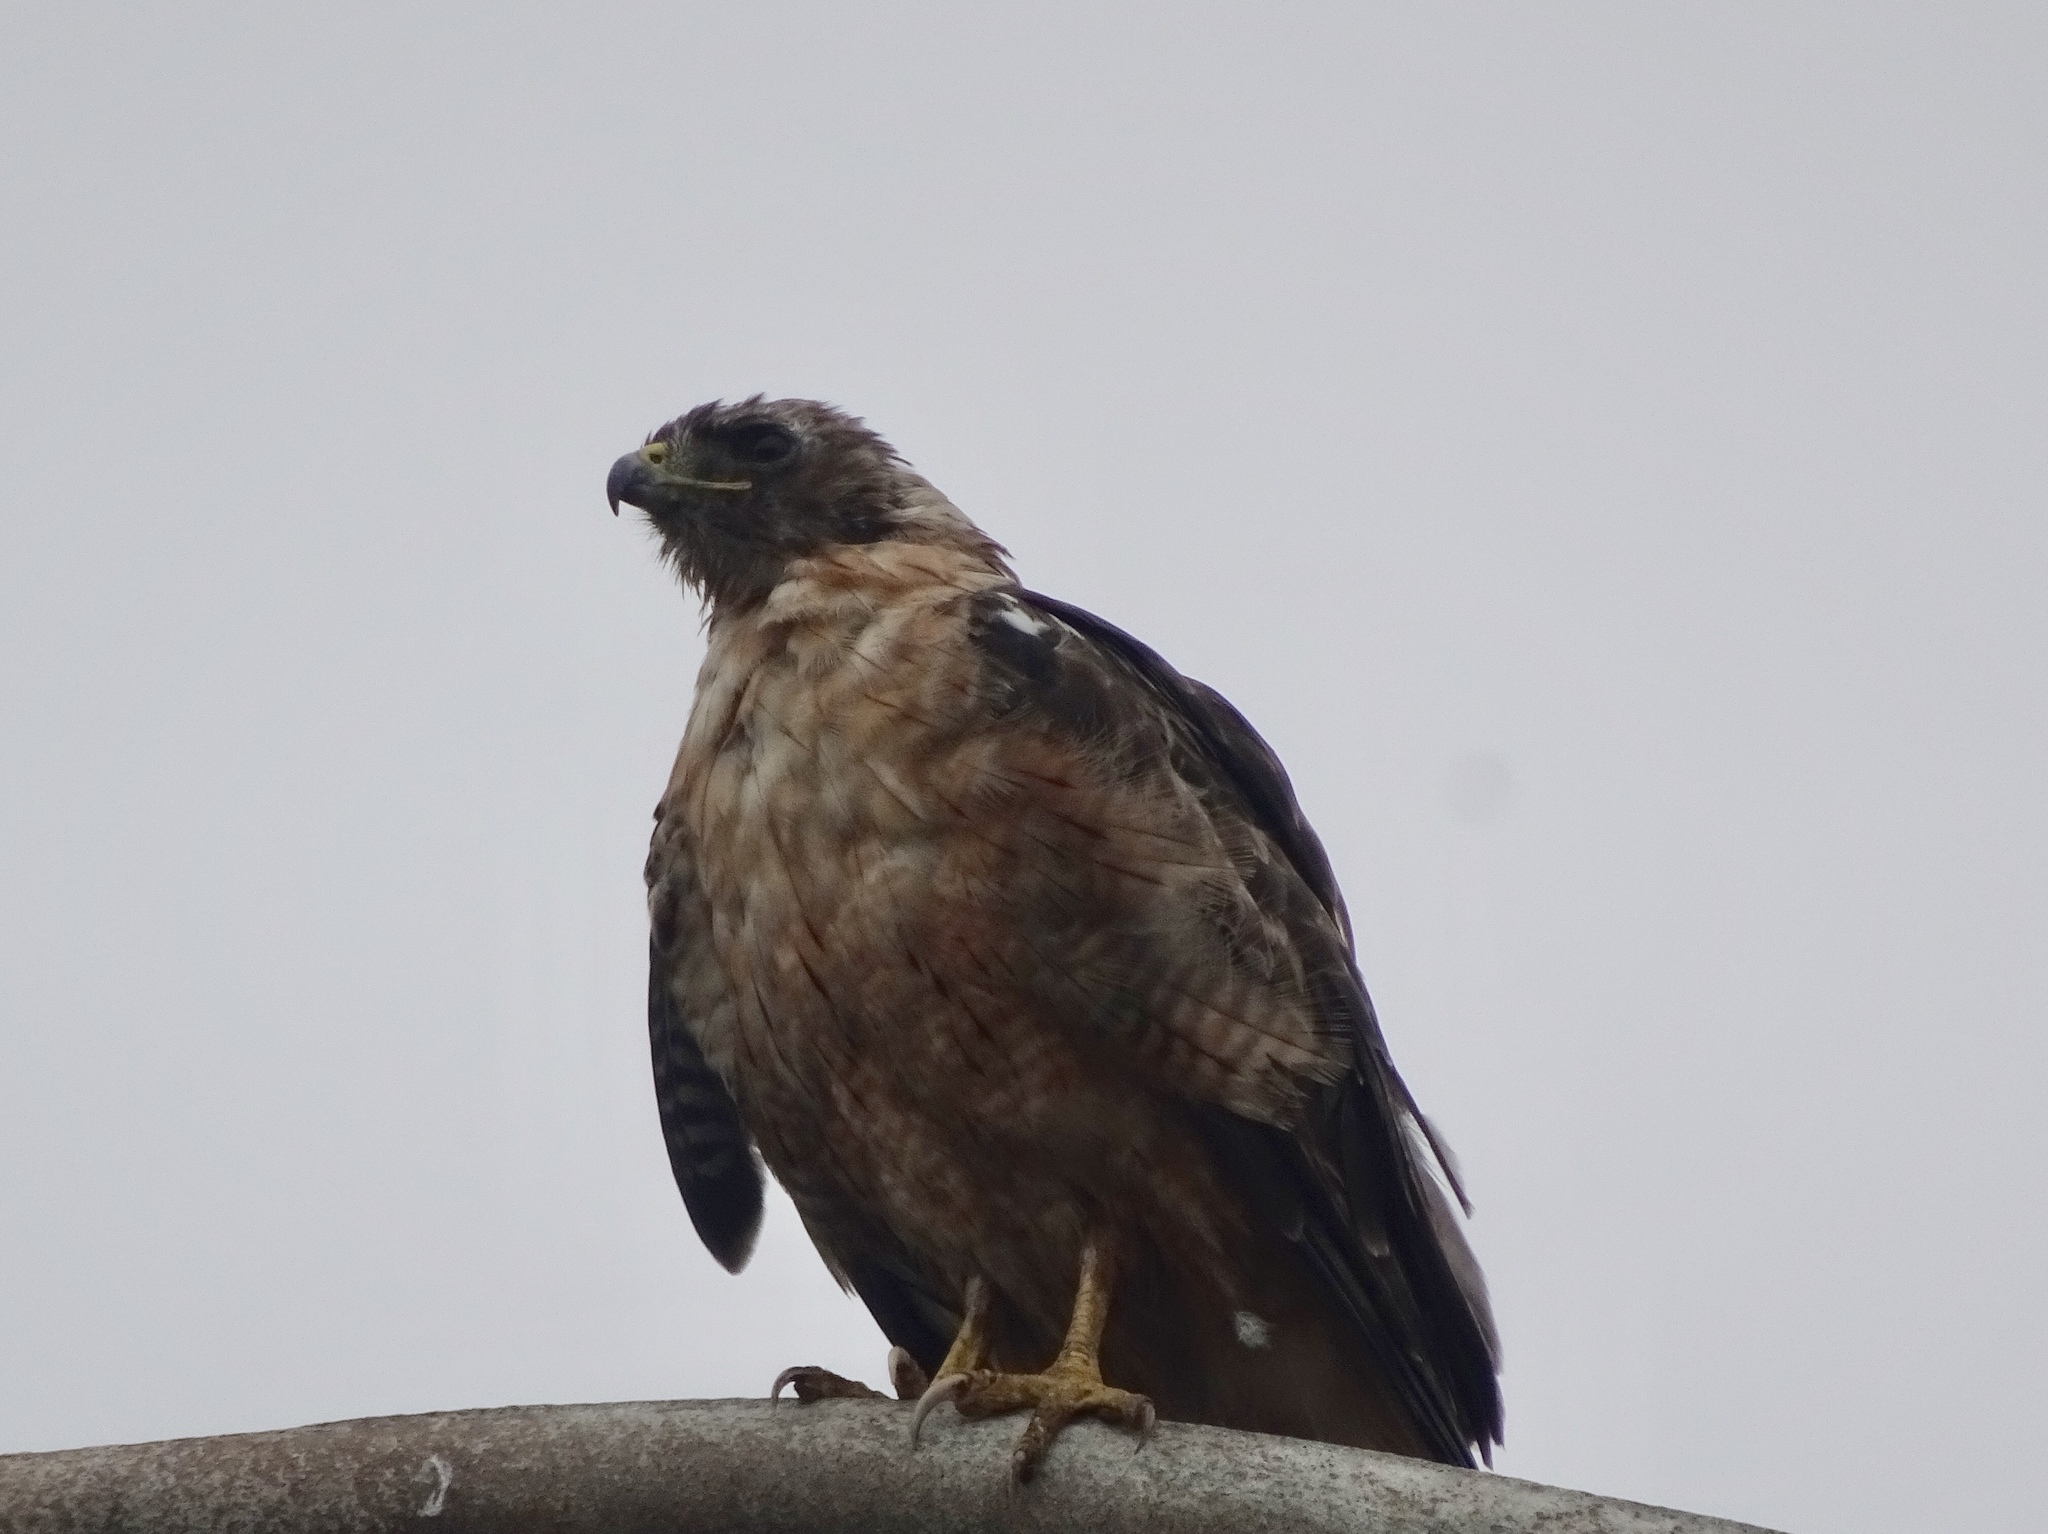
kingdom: Animalia
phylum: Chordata
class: Aves
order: Accipitriformes
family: Accipitridae
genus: Buteo
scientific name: Buteo jamaicensis
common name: Red-tailed hawk
